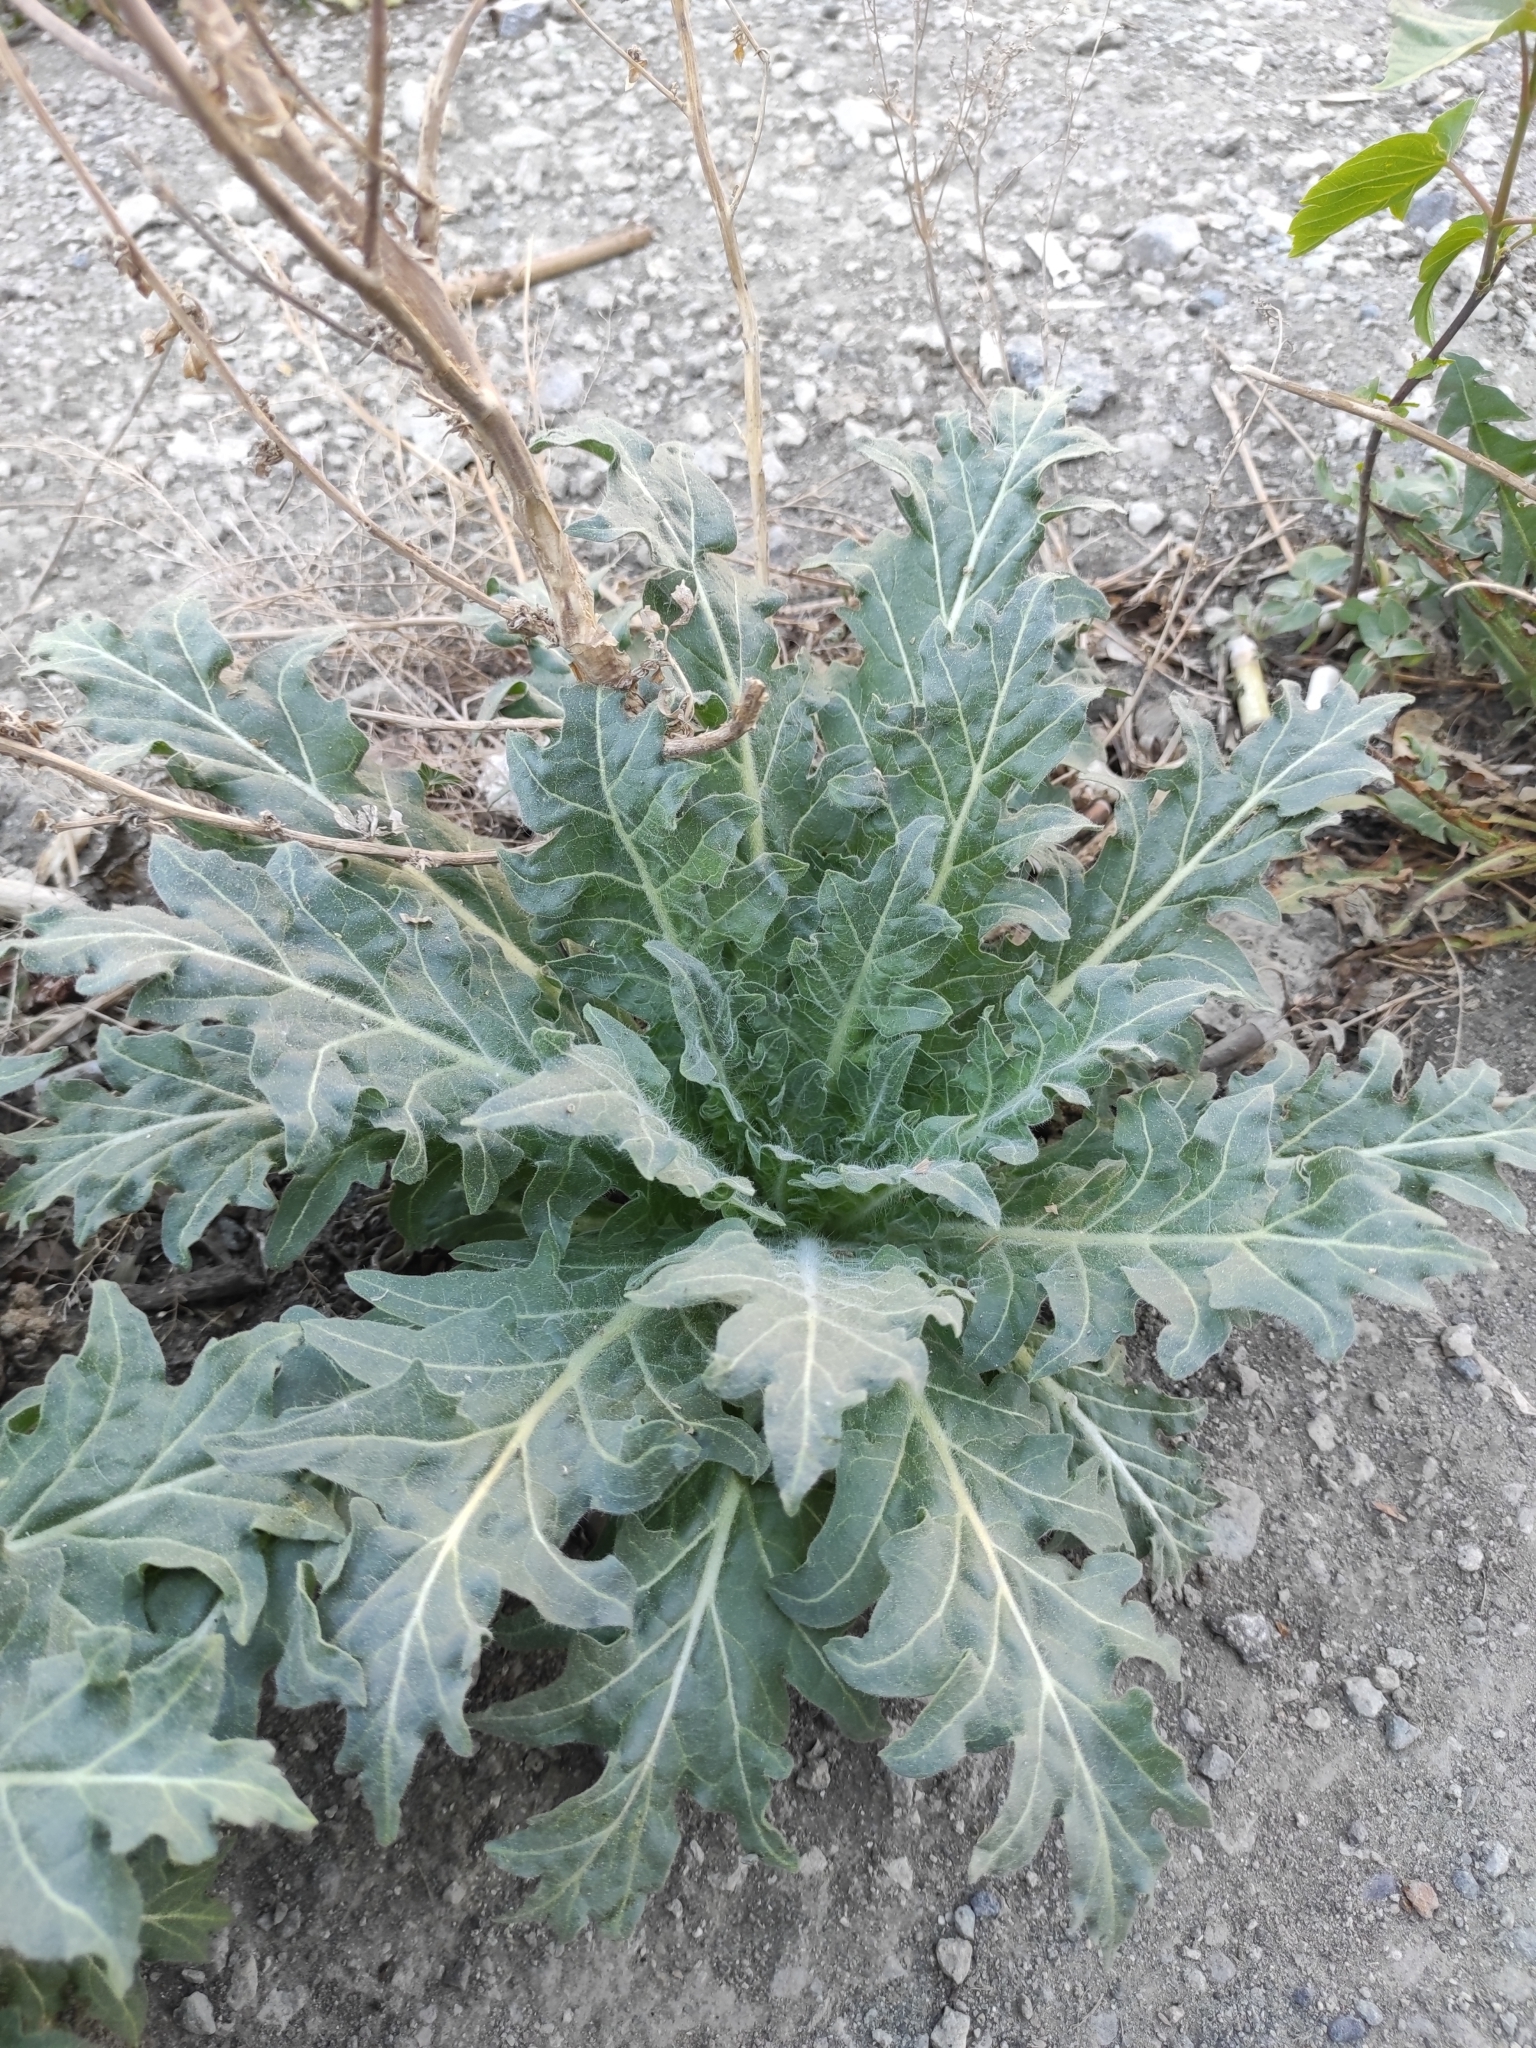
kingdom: Plantae
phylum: Tracheophyta
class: Magnoliopsida
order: Solanales
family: Solanaceae
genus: Hyoscyamus
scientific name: Hyoscyamus niger
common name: Henbane
